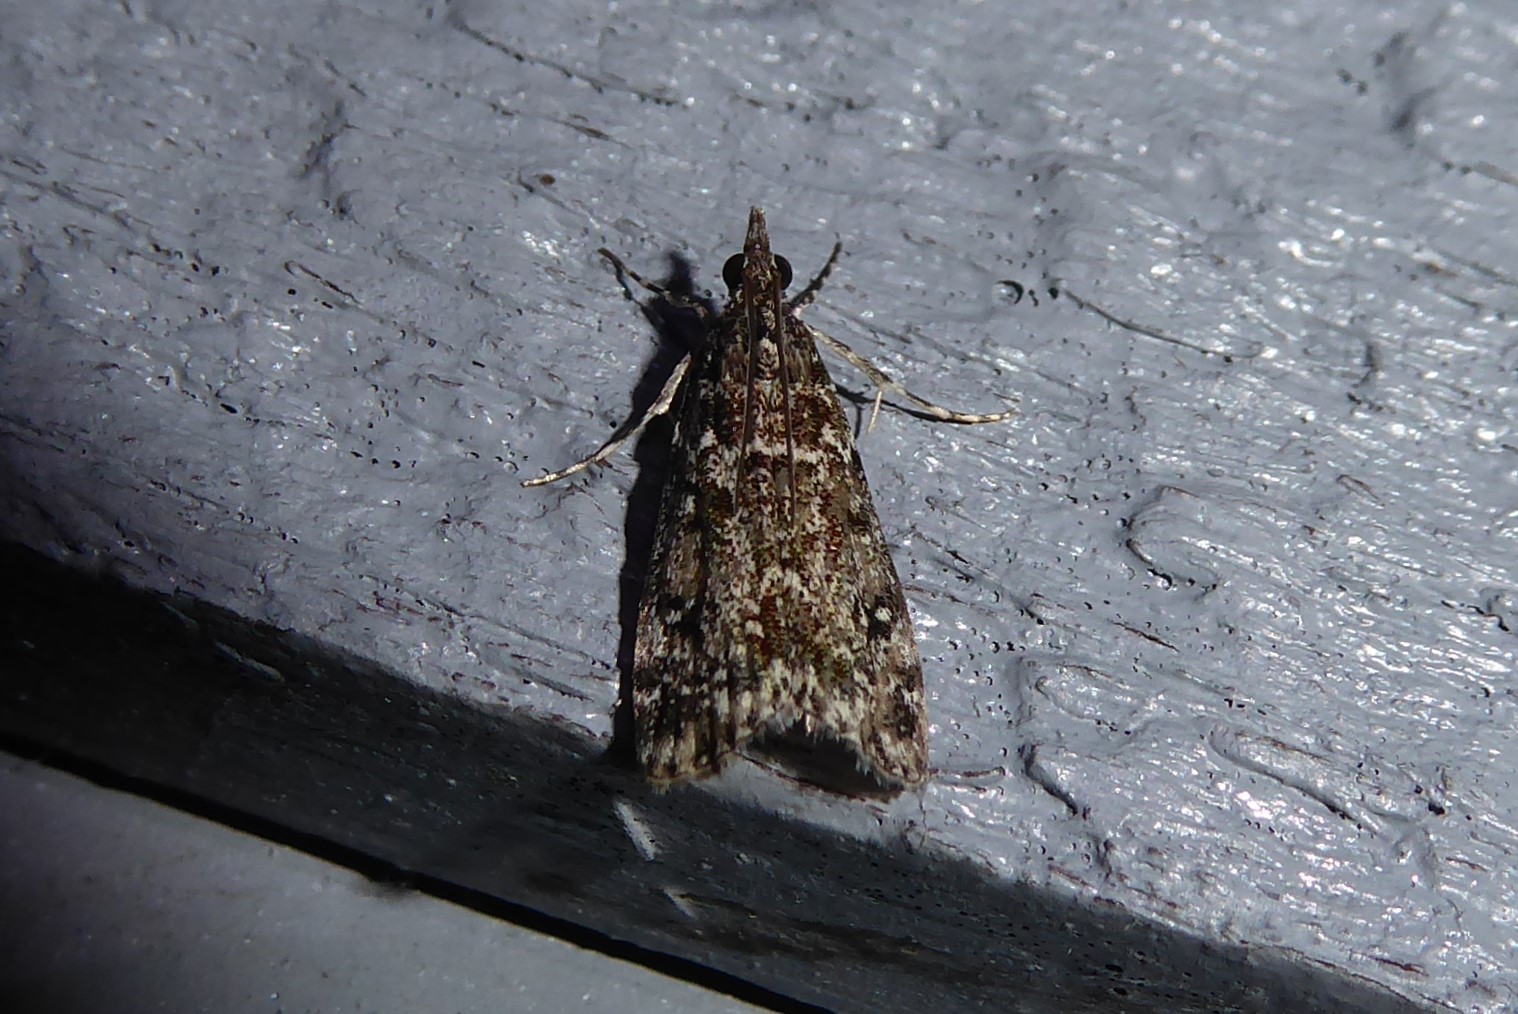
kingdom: Animalia
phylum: Arthropoda
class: Insecta
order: Lepidoptera
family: Crambidae
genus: Eudonia
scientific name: Eudonia philerga
